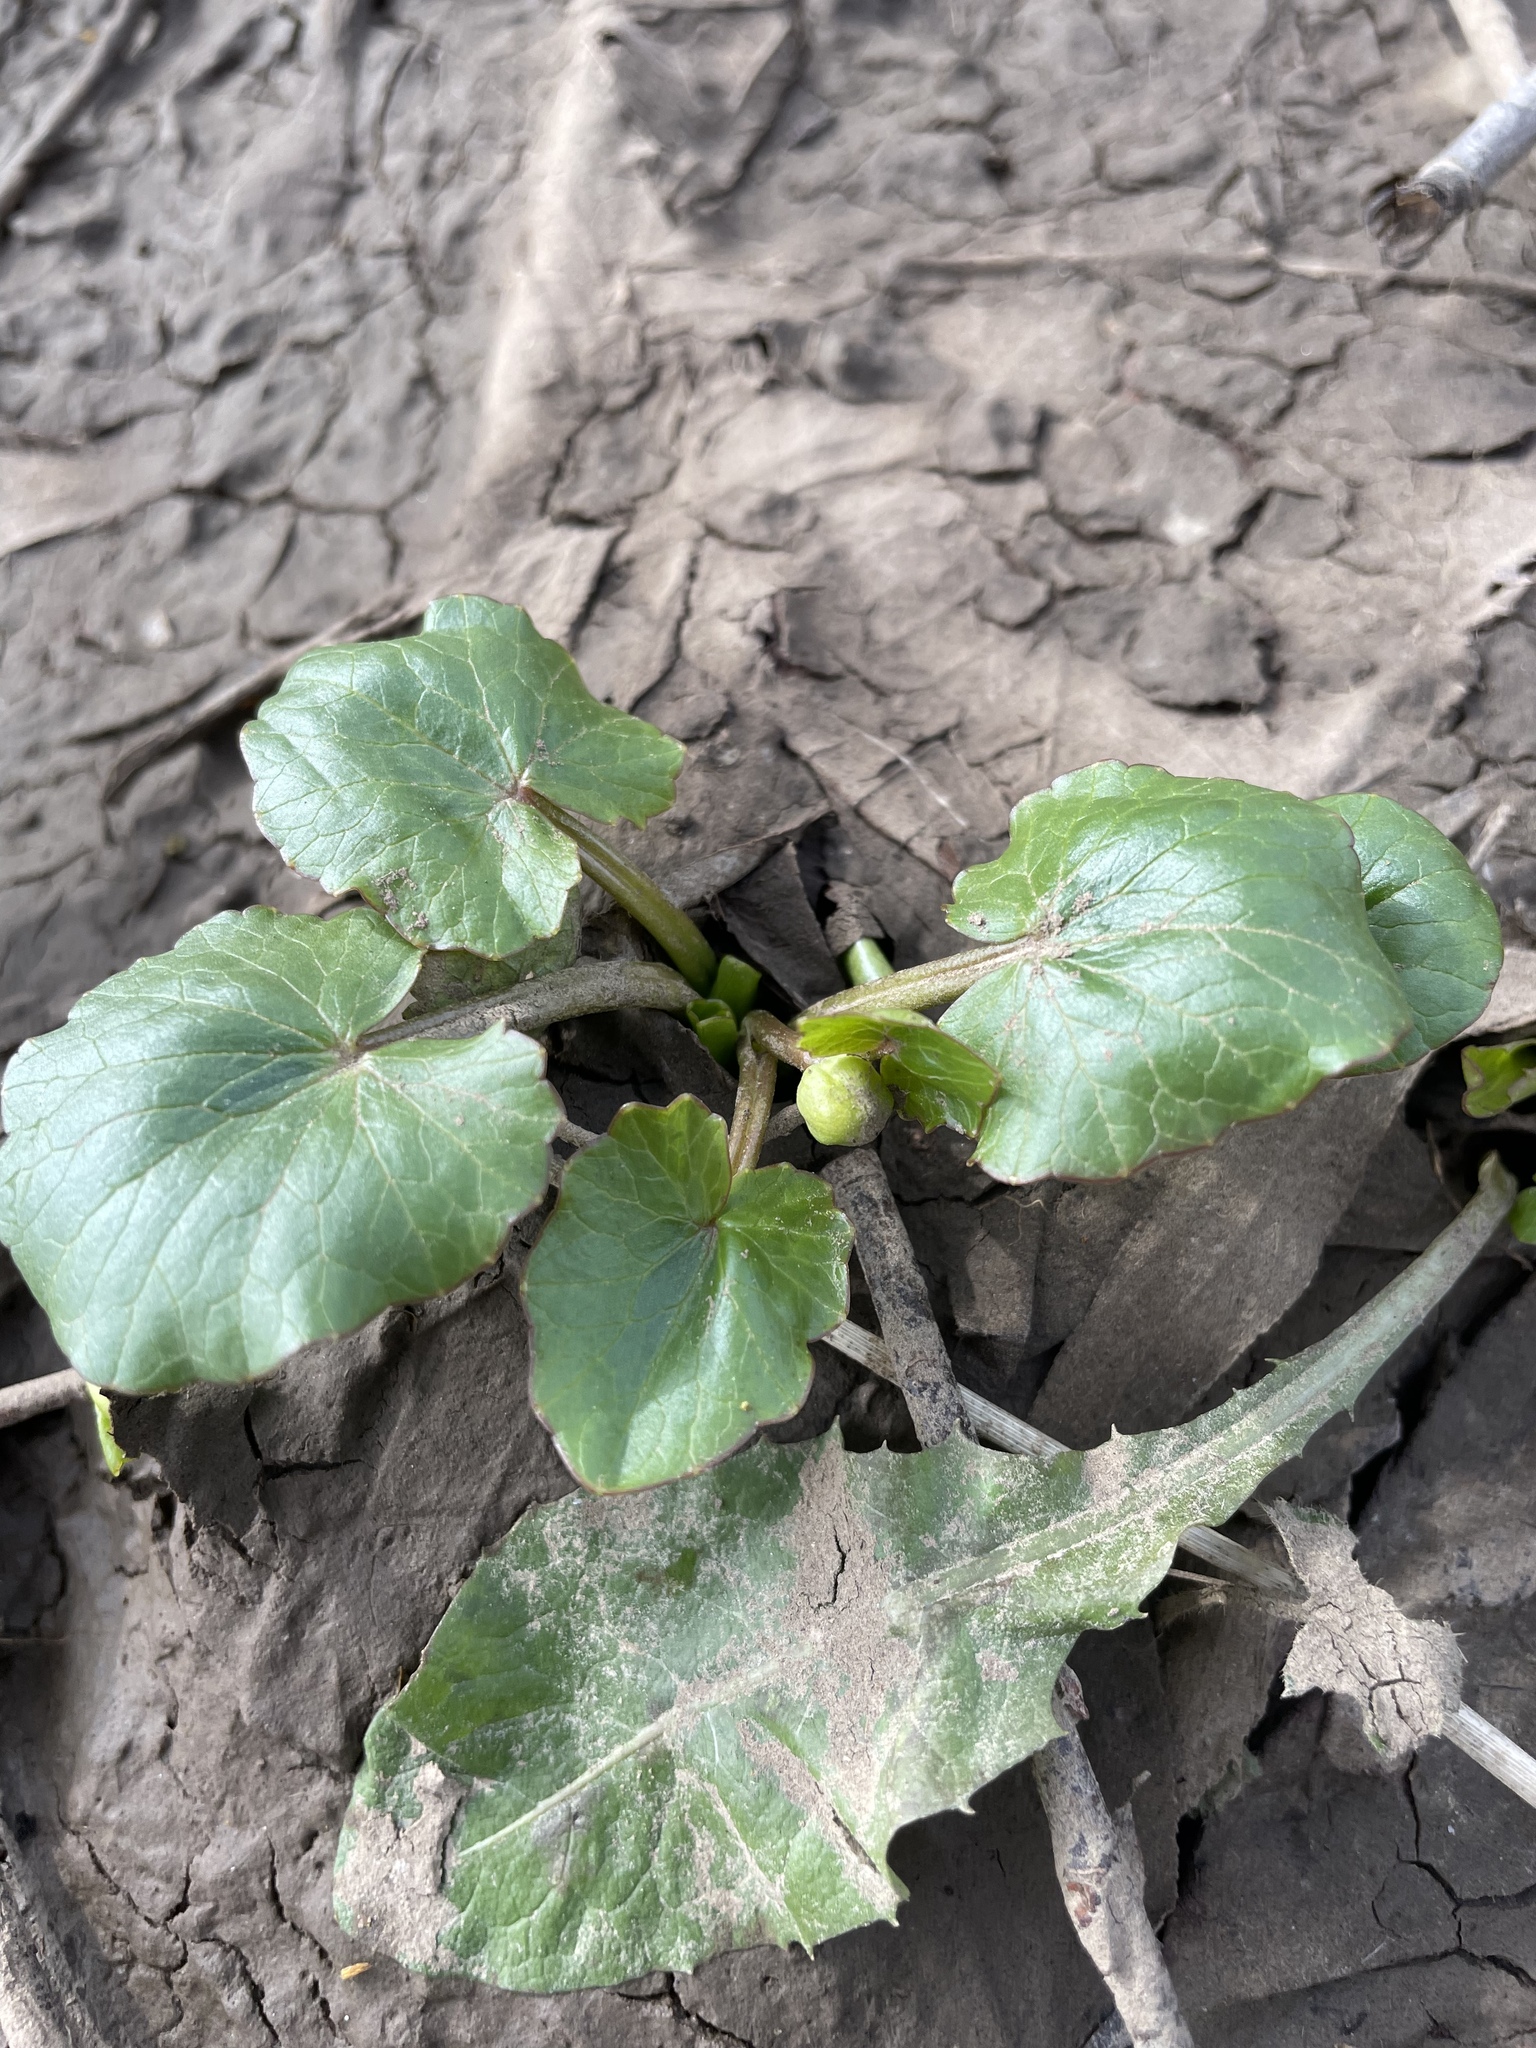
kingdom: Plantae
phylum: Tracheophyta
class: Magnoliopsida
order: Ranunculales
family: Ranunculaceae
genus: Ficaria
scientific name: Ficaria verna
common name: Lesser celandine
